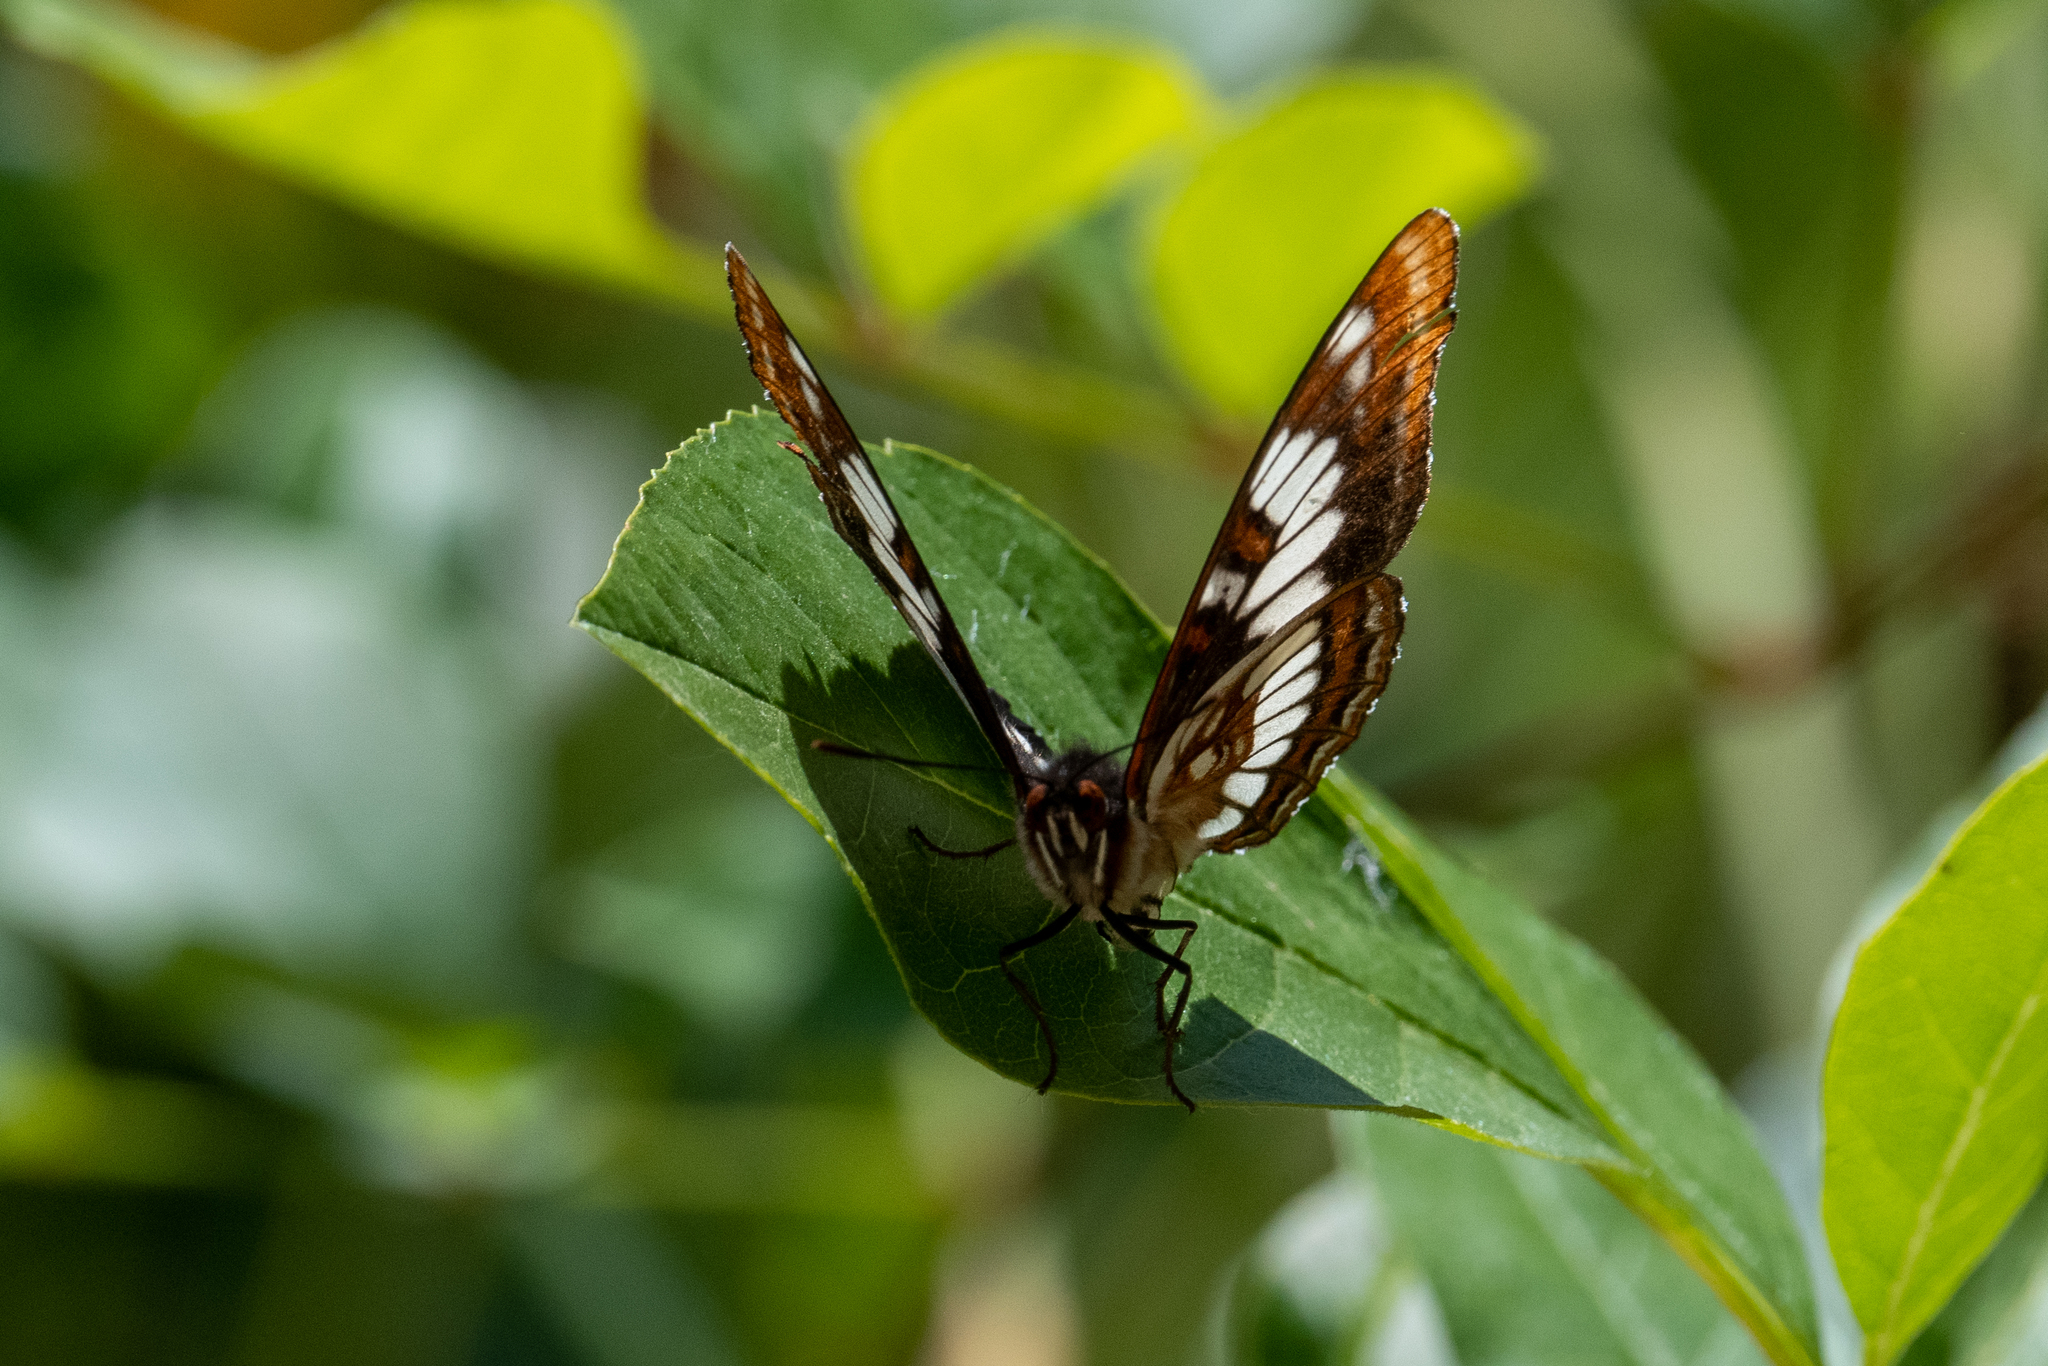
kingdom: Animalia
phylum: Arthropoda
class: Insecta
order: Lepidoptera
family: Nymphalidae
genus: Limenitis
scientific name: Limenitis lorquini
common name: Lorquin's admiral
